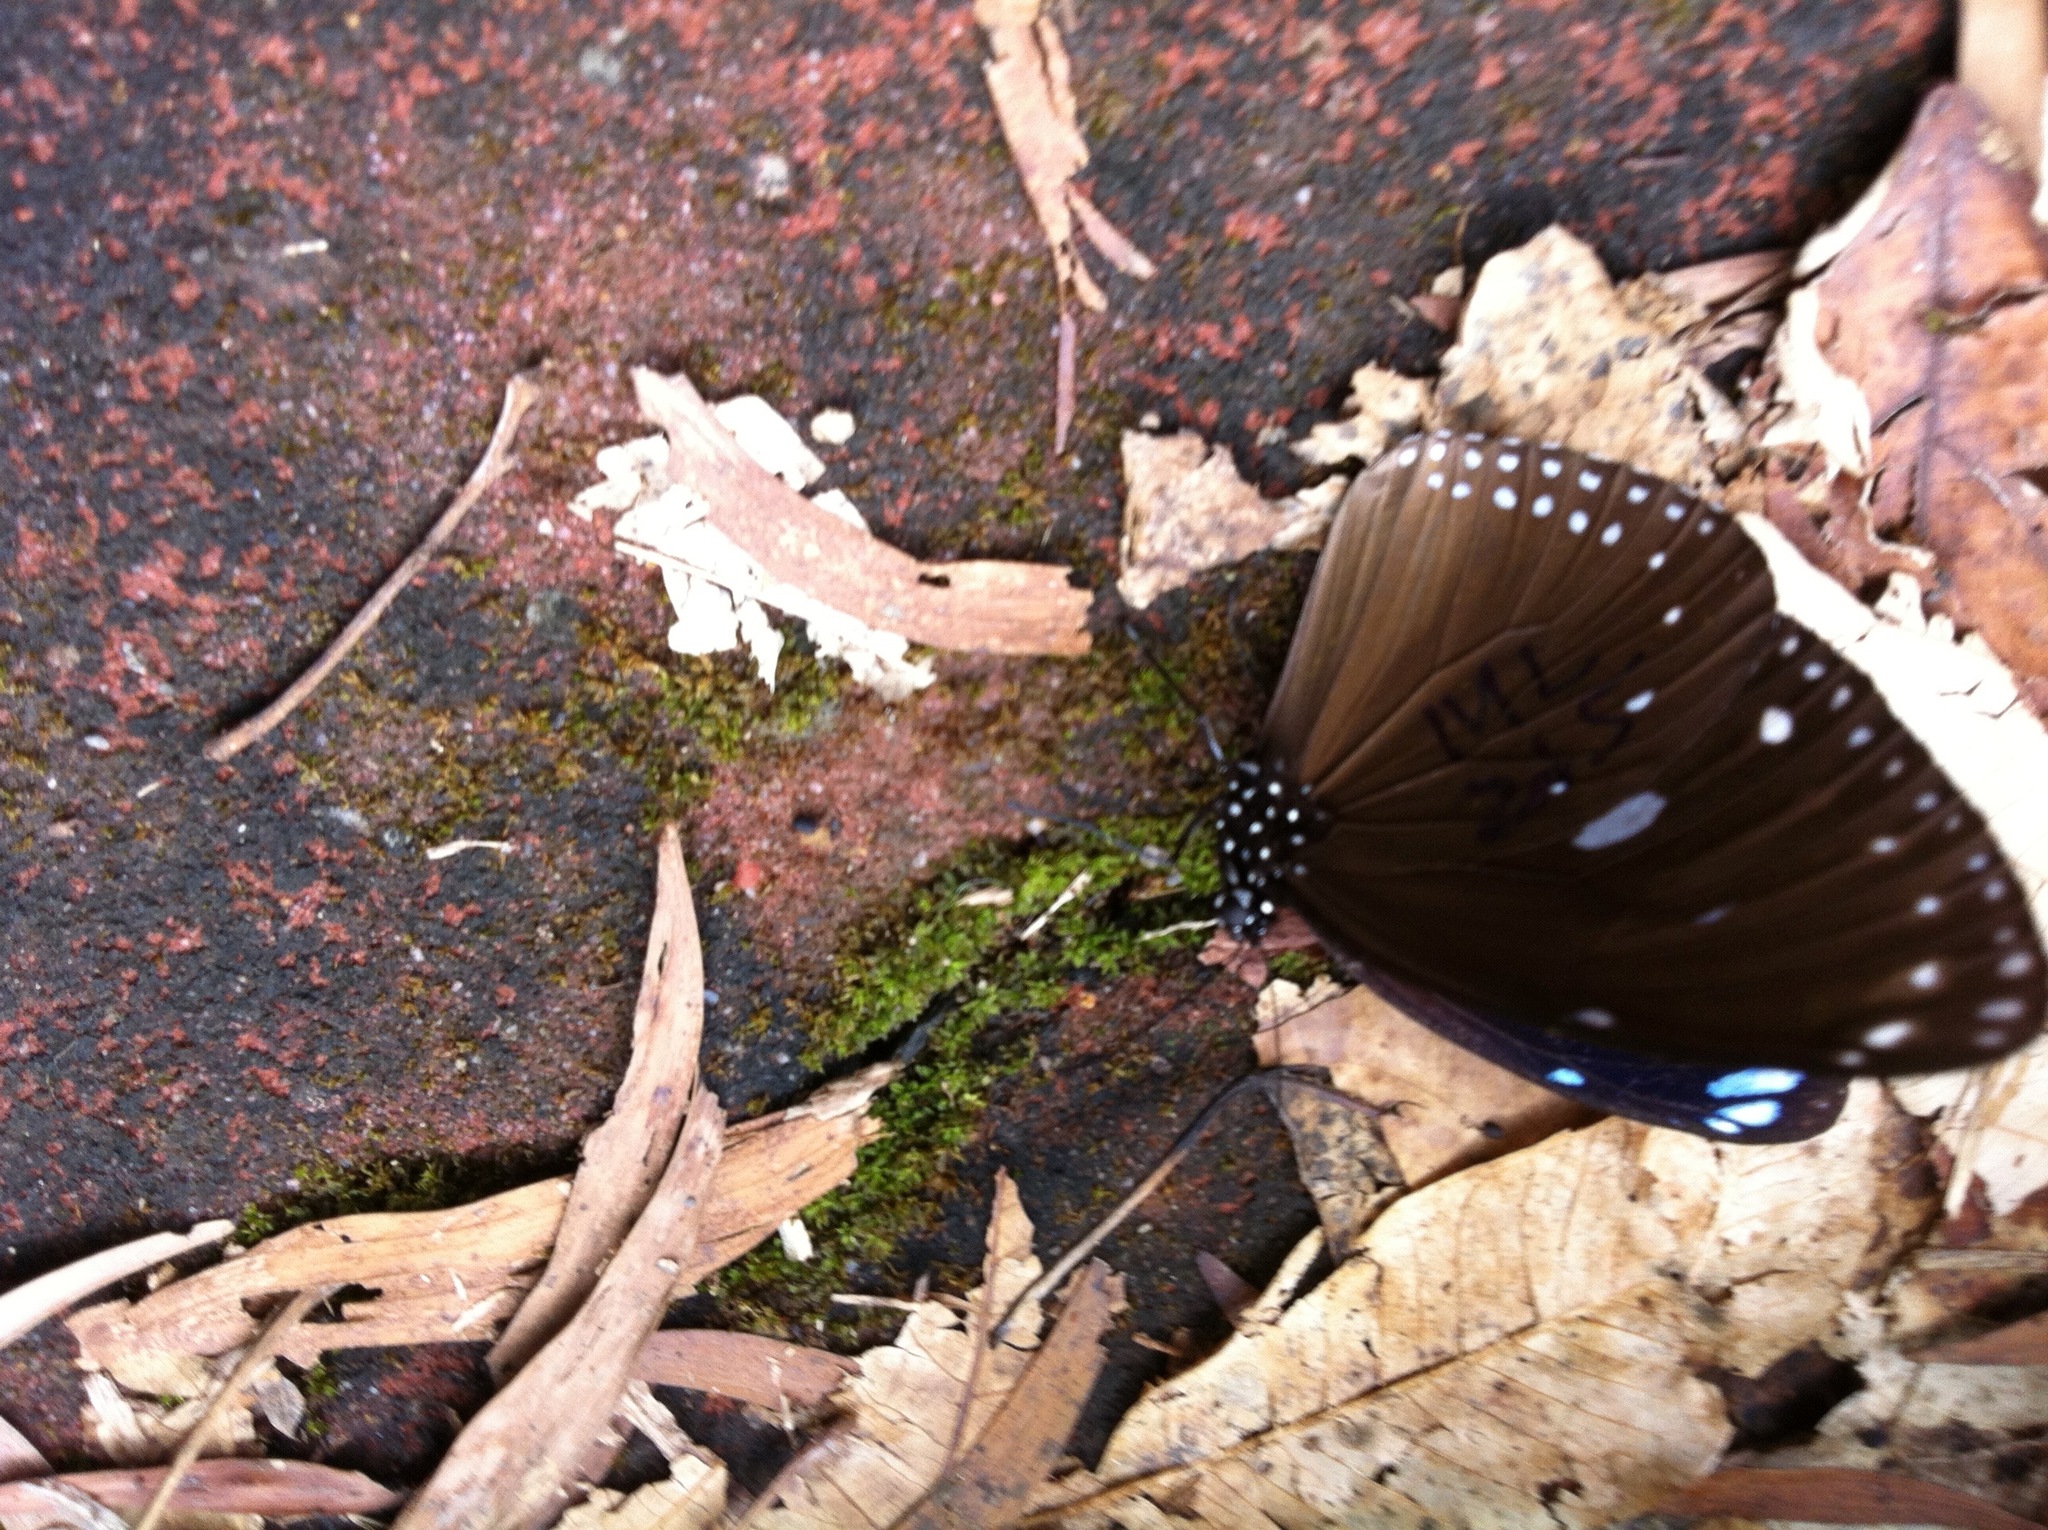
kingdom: Animalia
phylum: Arthropoda
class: Insecta
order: Lepidoptera
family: Nymphalidae
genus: Euploea
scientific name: Euploea eunice
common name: Blue-banded king crow butterfly
